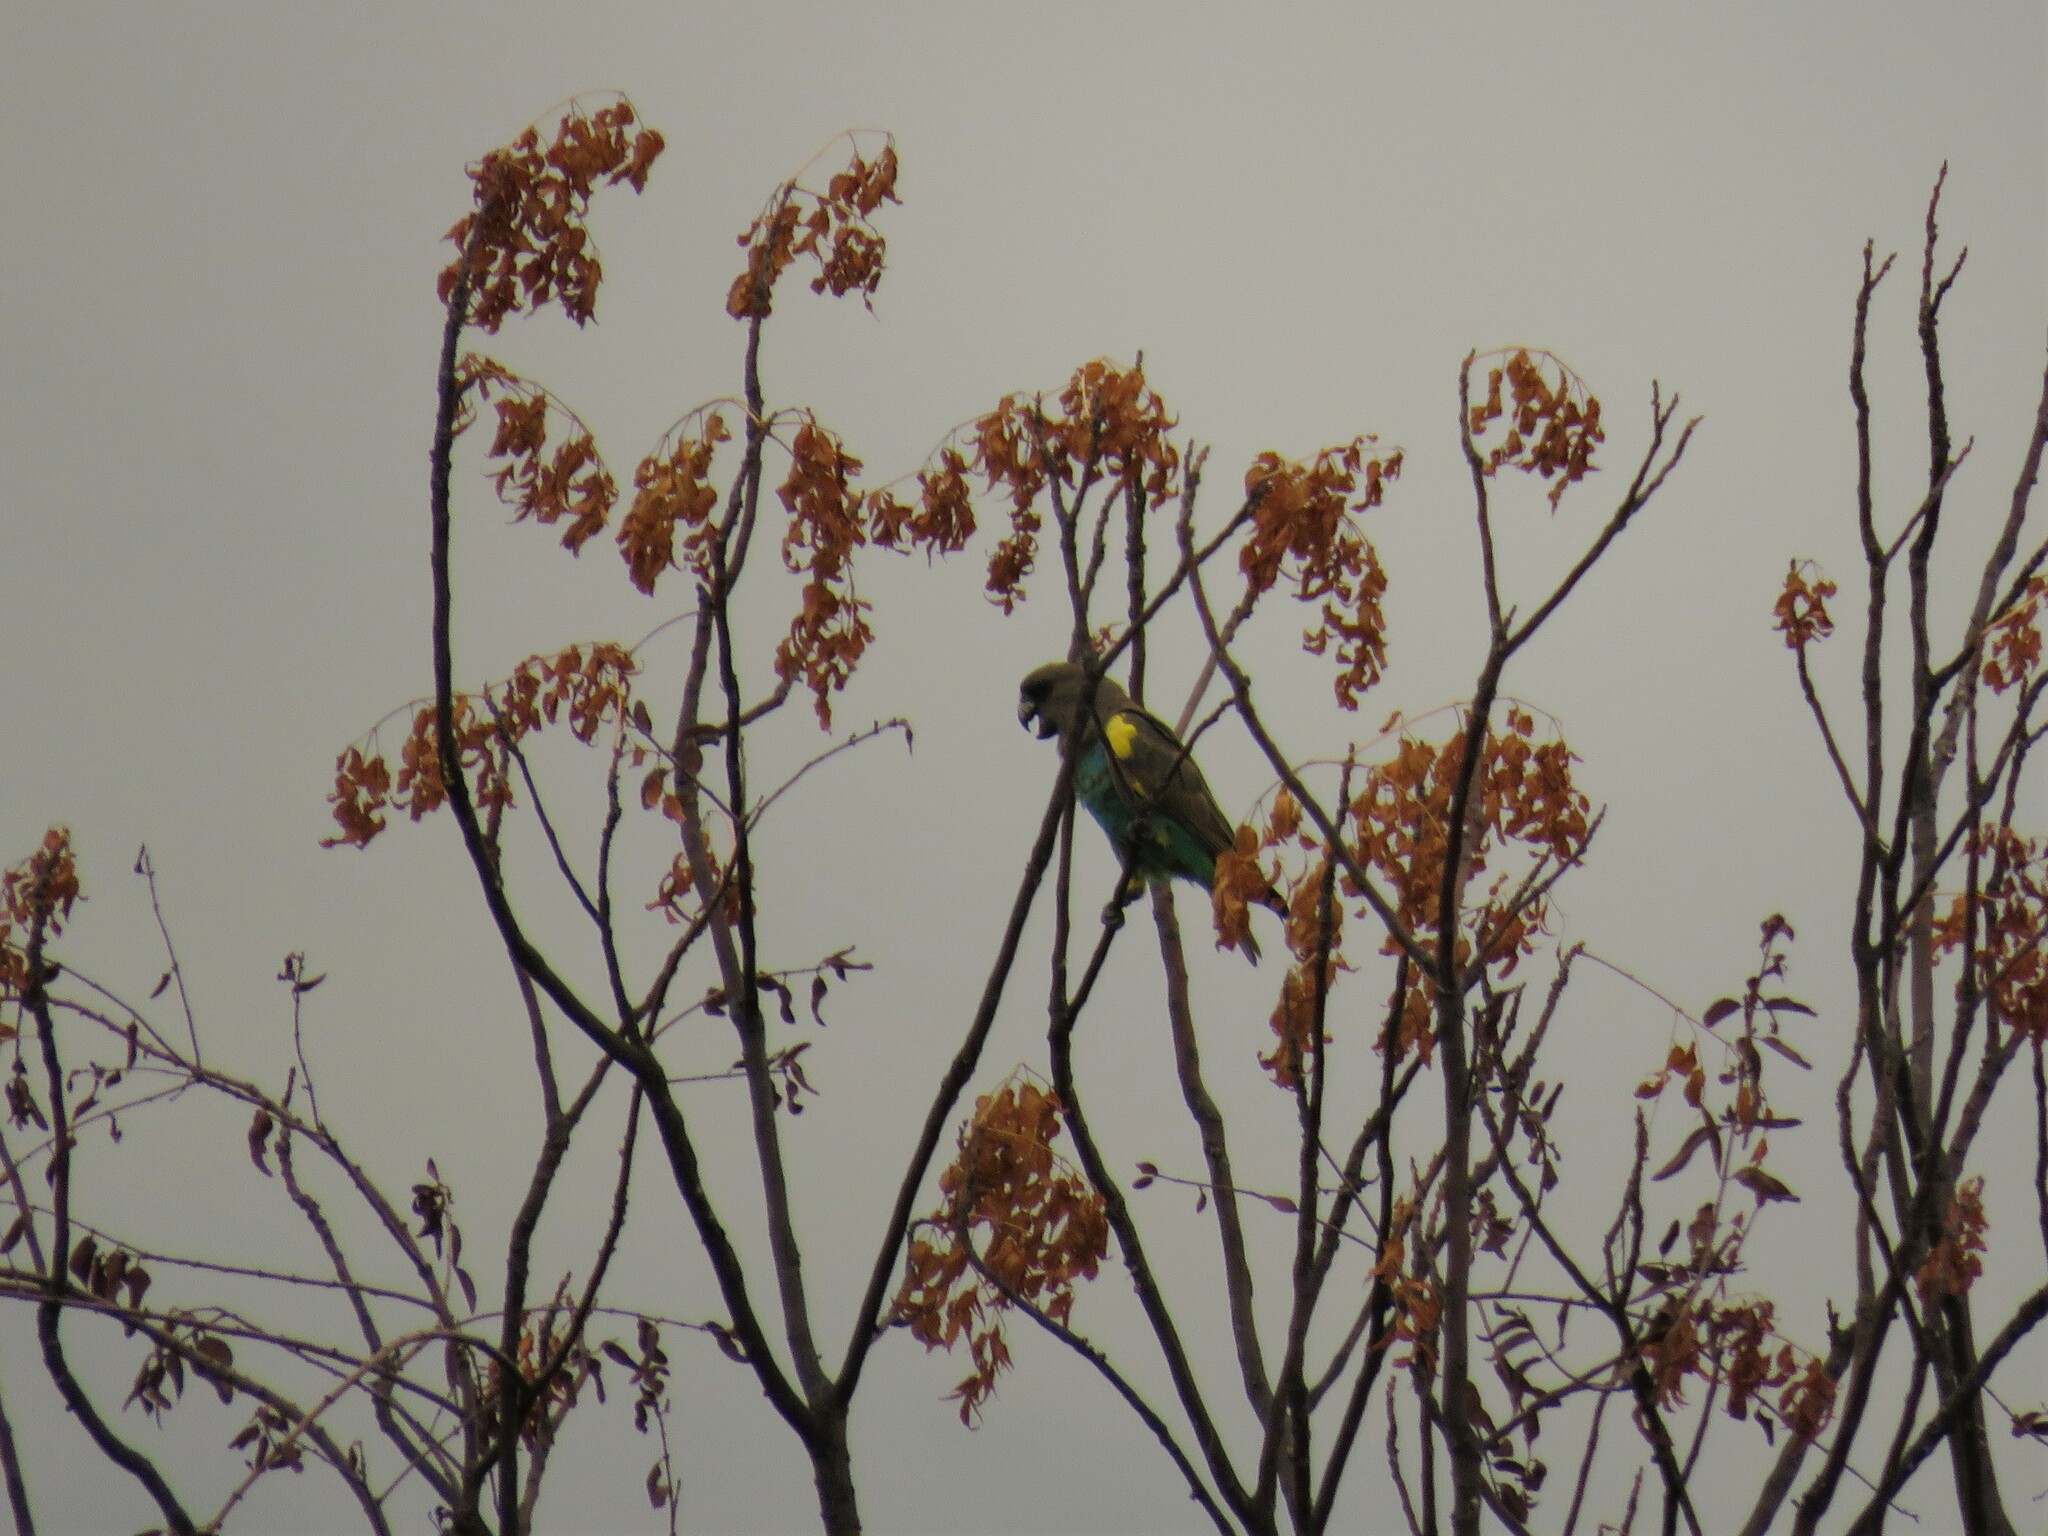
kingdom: Animalia
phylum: Chordata
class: Aves
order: Psittaciformes
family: Psittacidae
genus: Poicephalus
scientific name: Poicephalus meyeri
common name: Meyer's parrot
